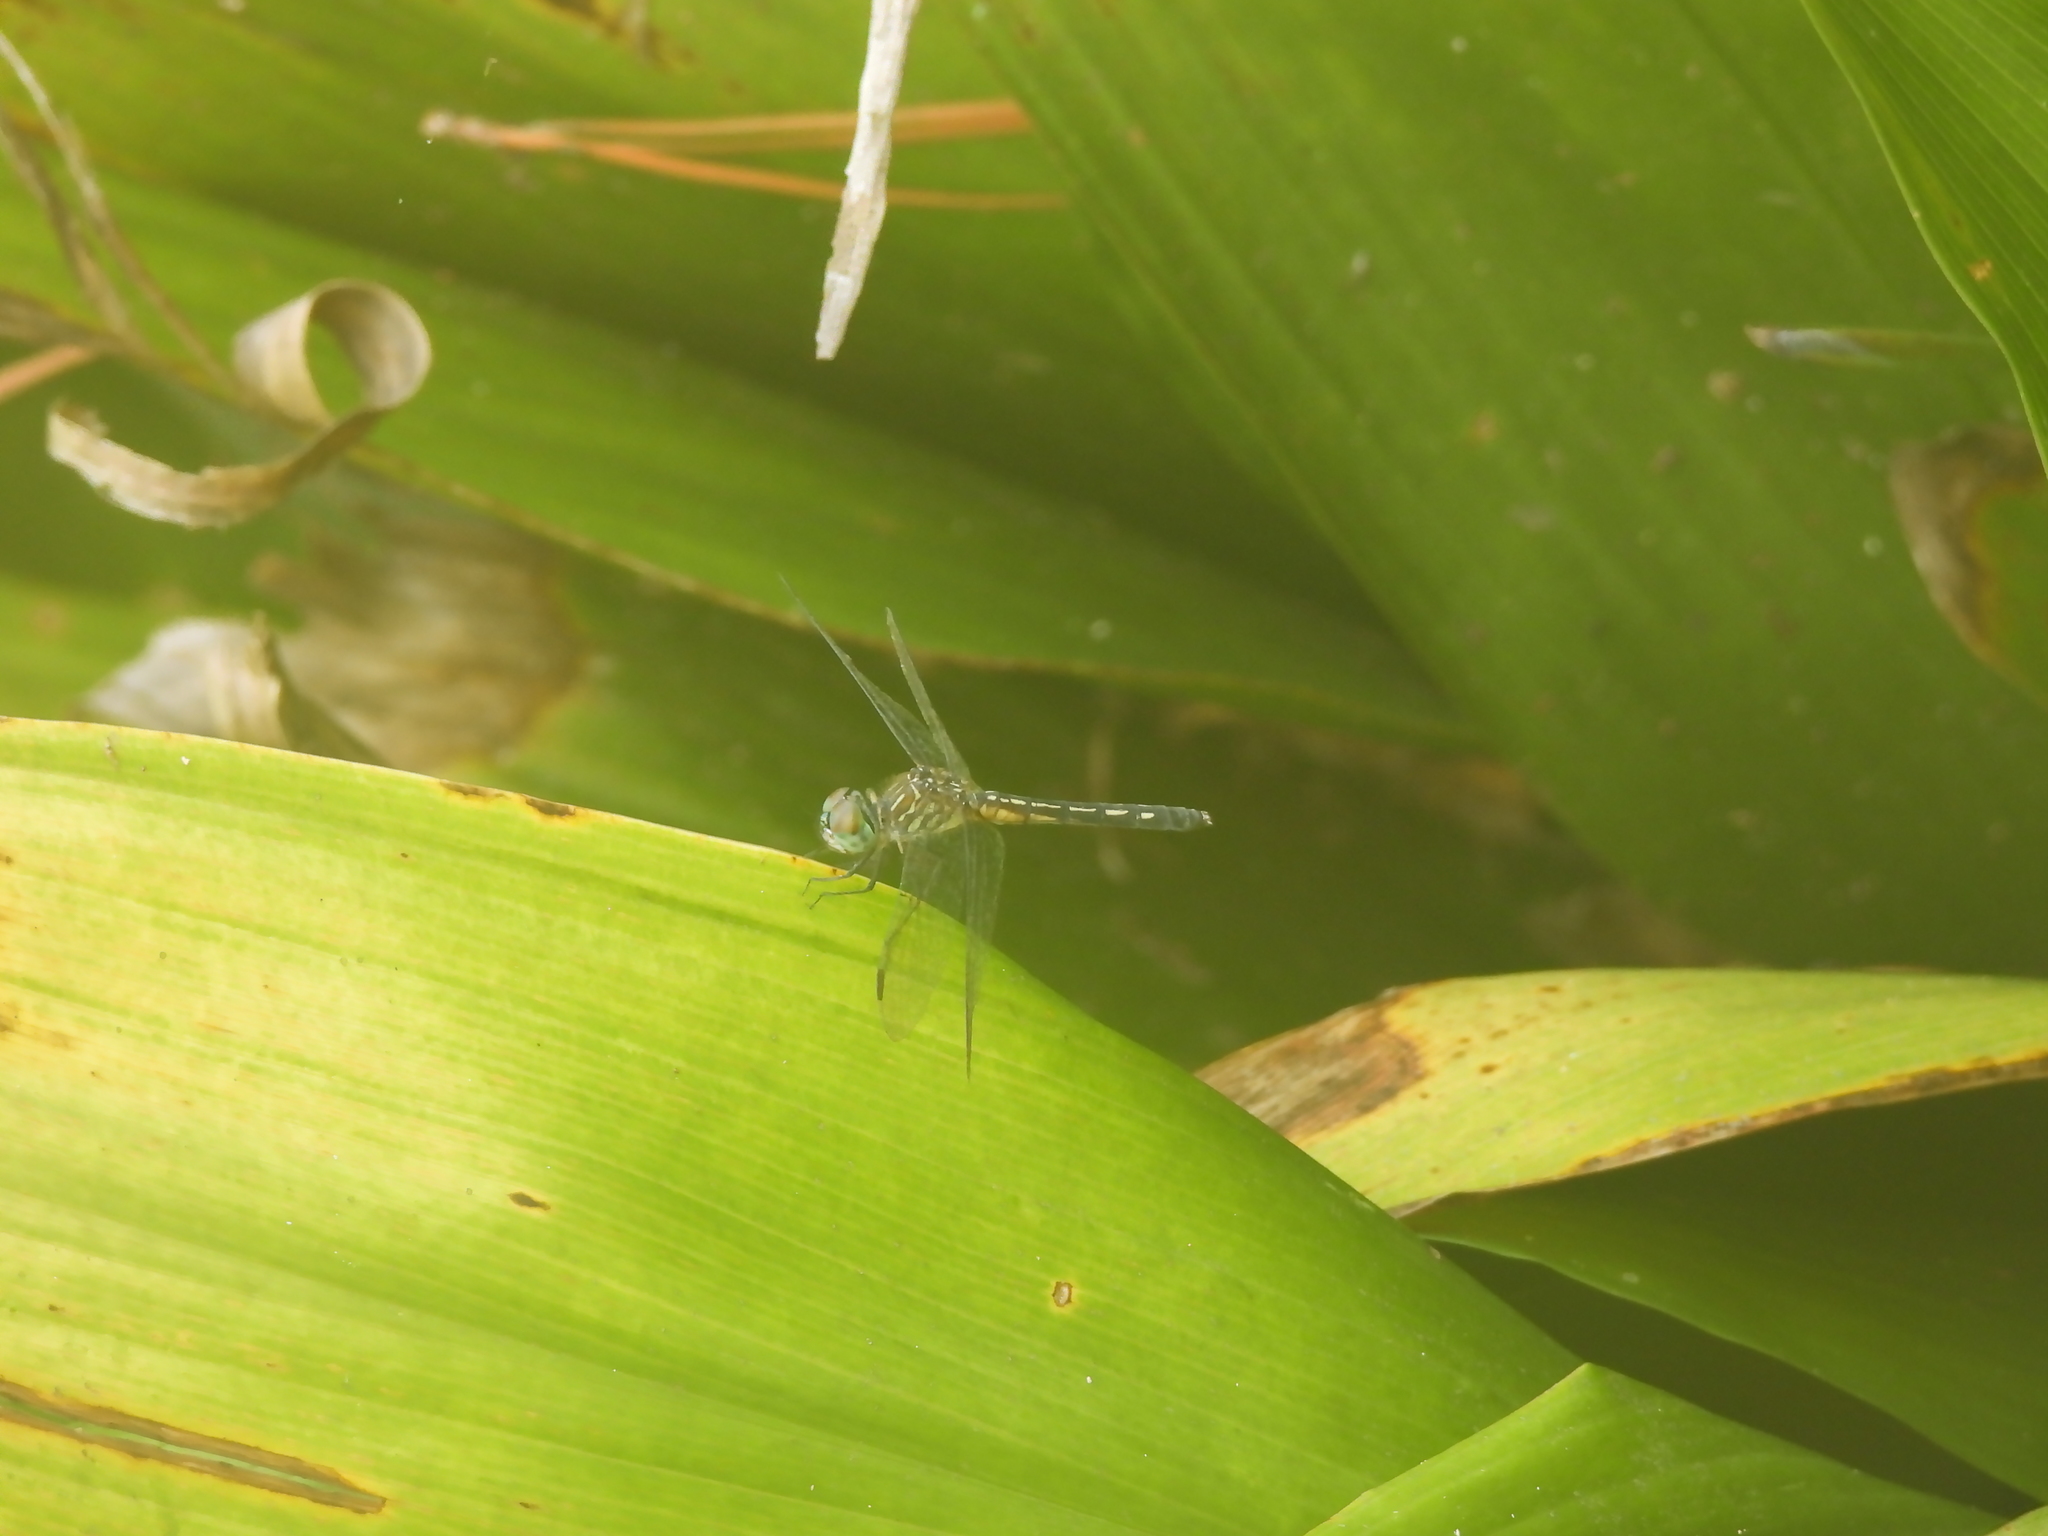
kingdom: Animalia
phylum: Arthropoda
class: Insecta
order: Odonata
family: Libellulidae
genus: Pachydiplax
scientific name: Pachydiplax longipennis
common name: Blue dasher
